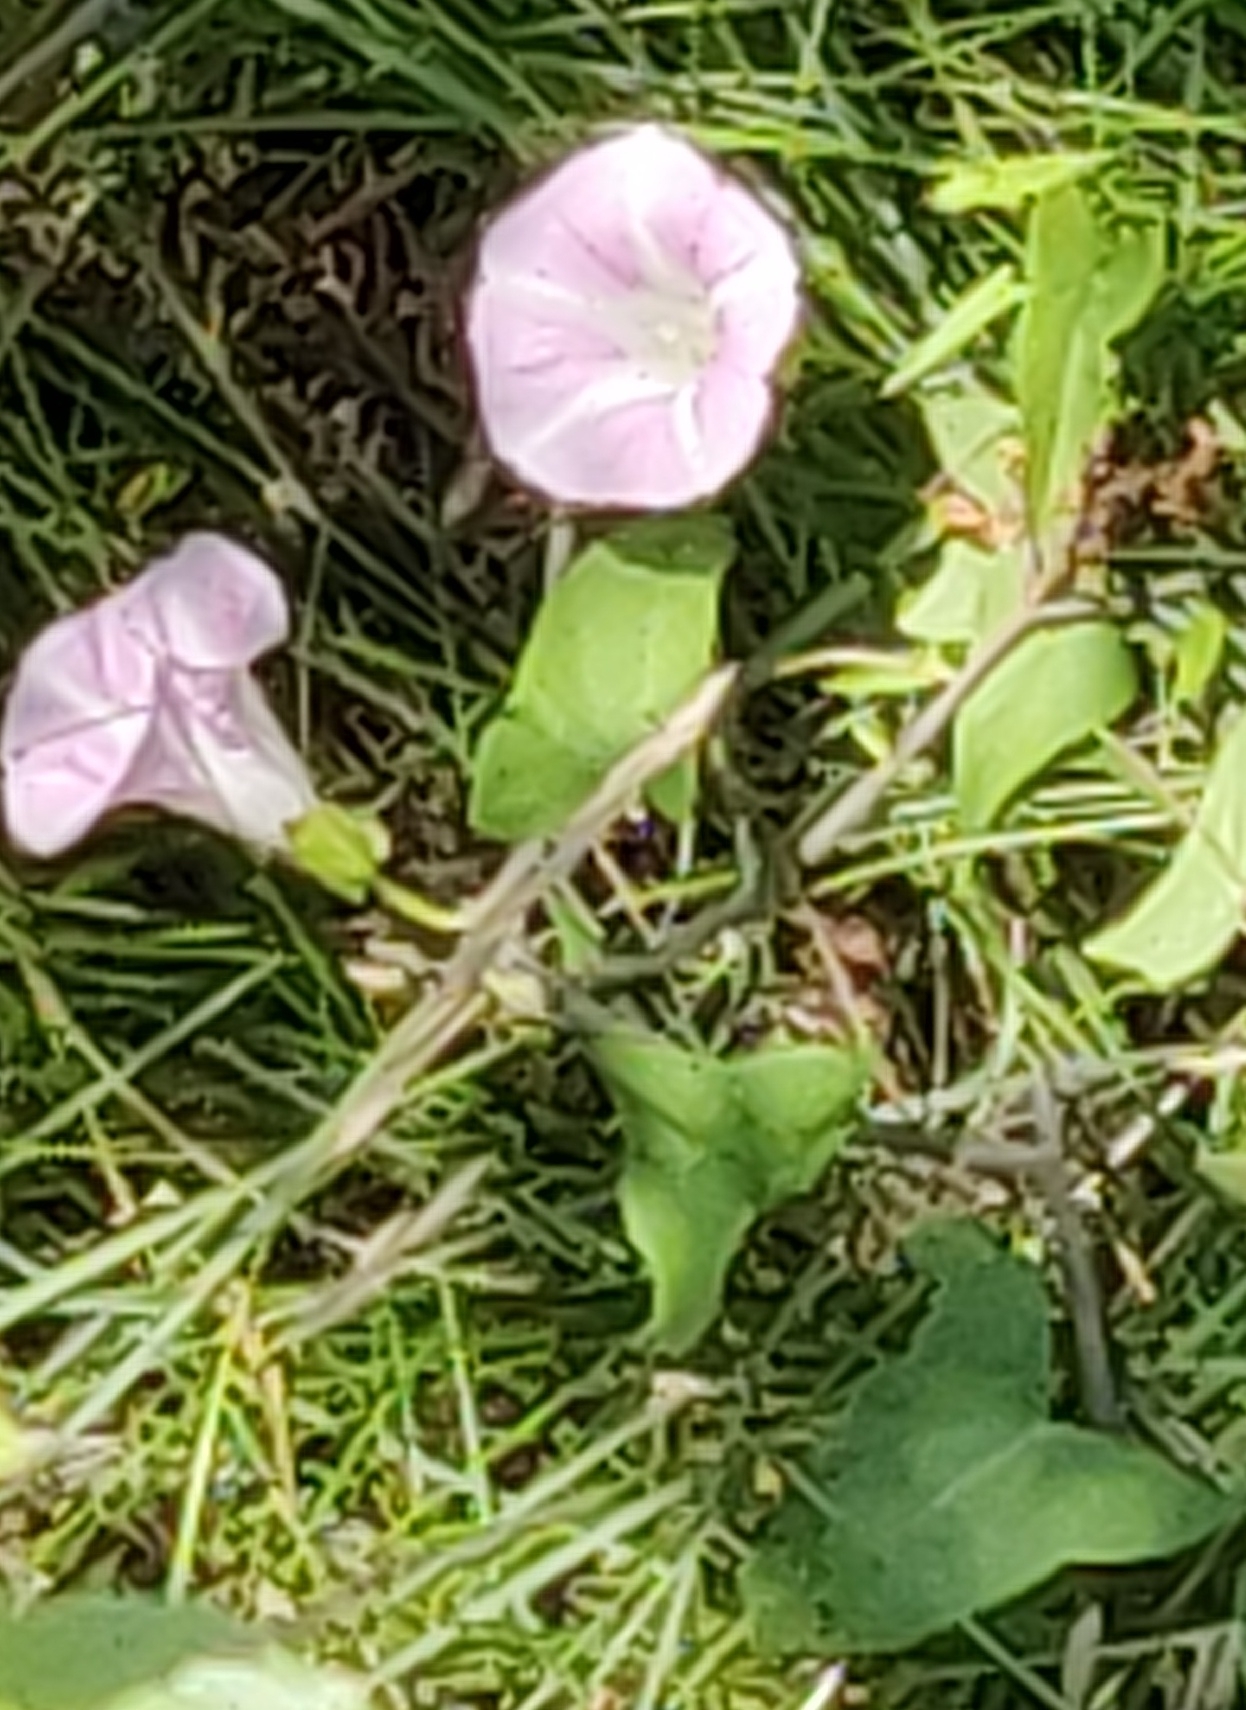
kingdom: Plantae
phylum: Tracheophyta
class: Magnoliopsida
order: Solanales
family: Convolvulaceae
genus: Calystegia
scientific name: Calystegia
